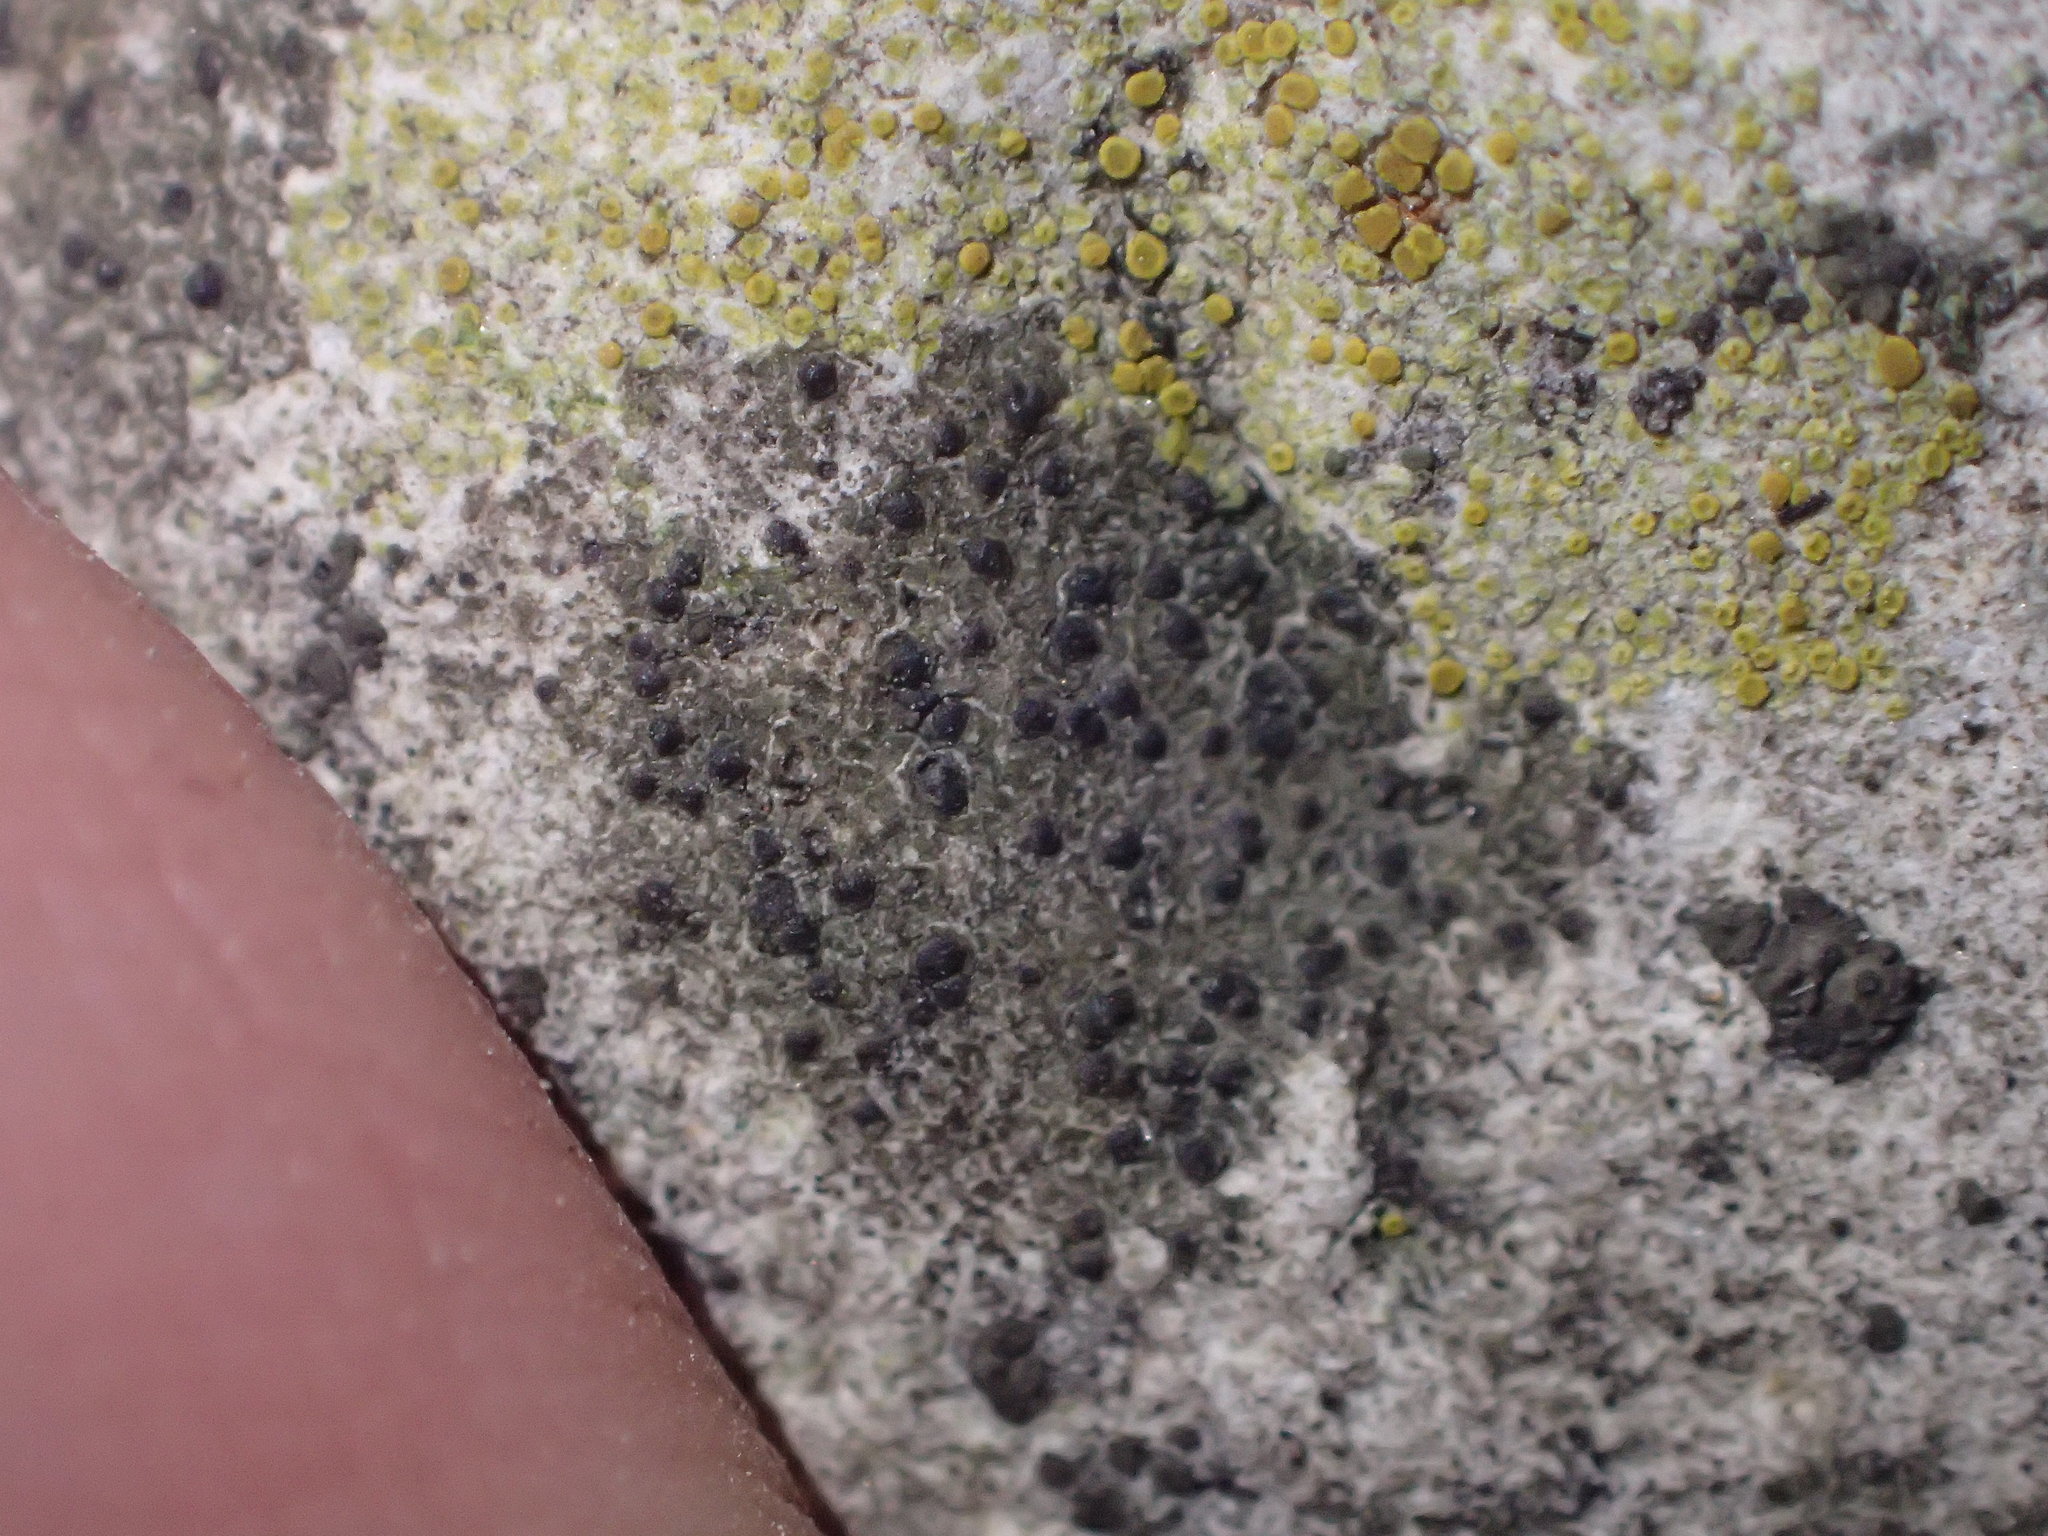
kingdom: Fungi
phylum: Ascomycota
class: Lecanoromycetes
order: Lecanorales
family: Ramalinaceae
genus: Bacidia
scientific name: Bacidia
